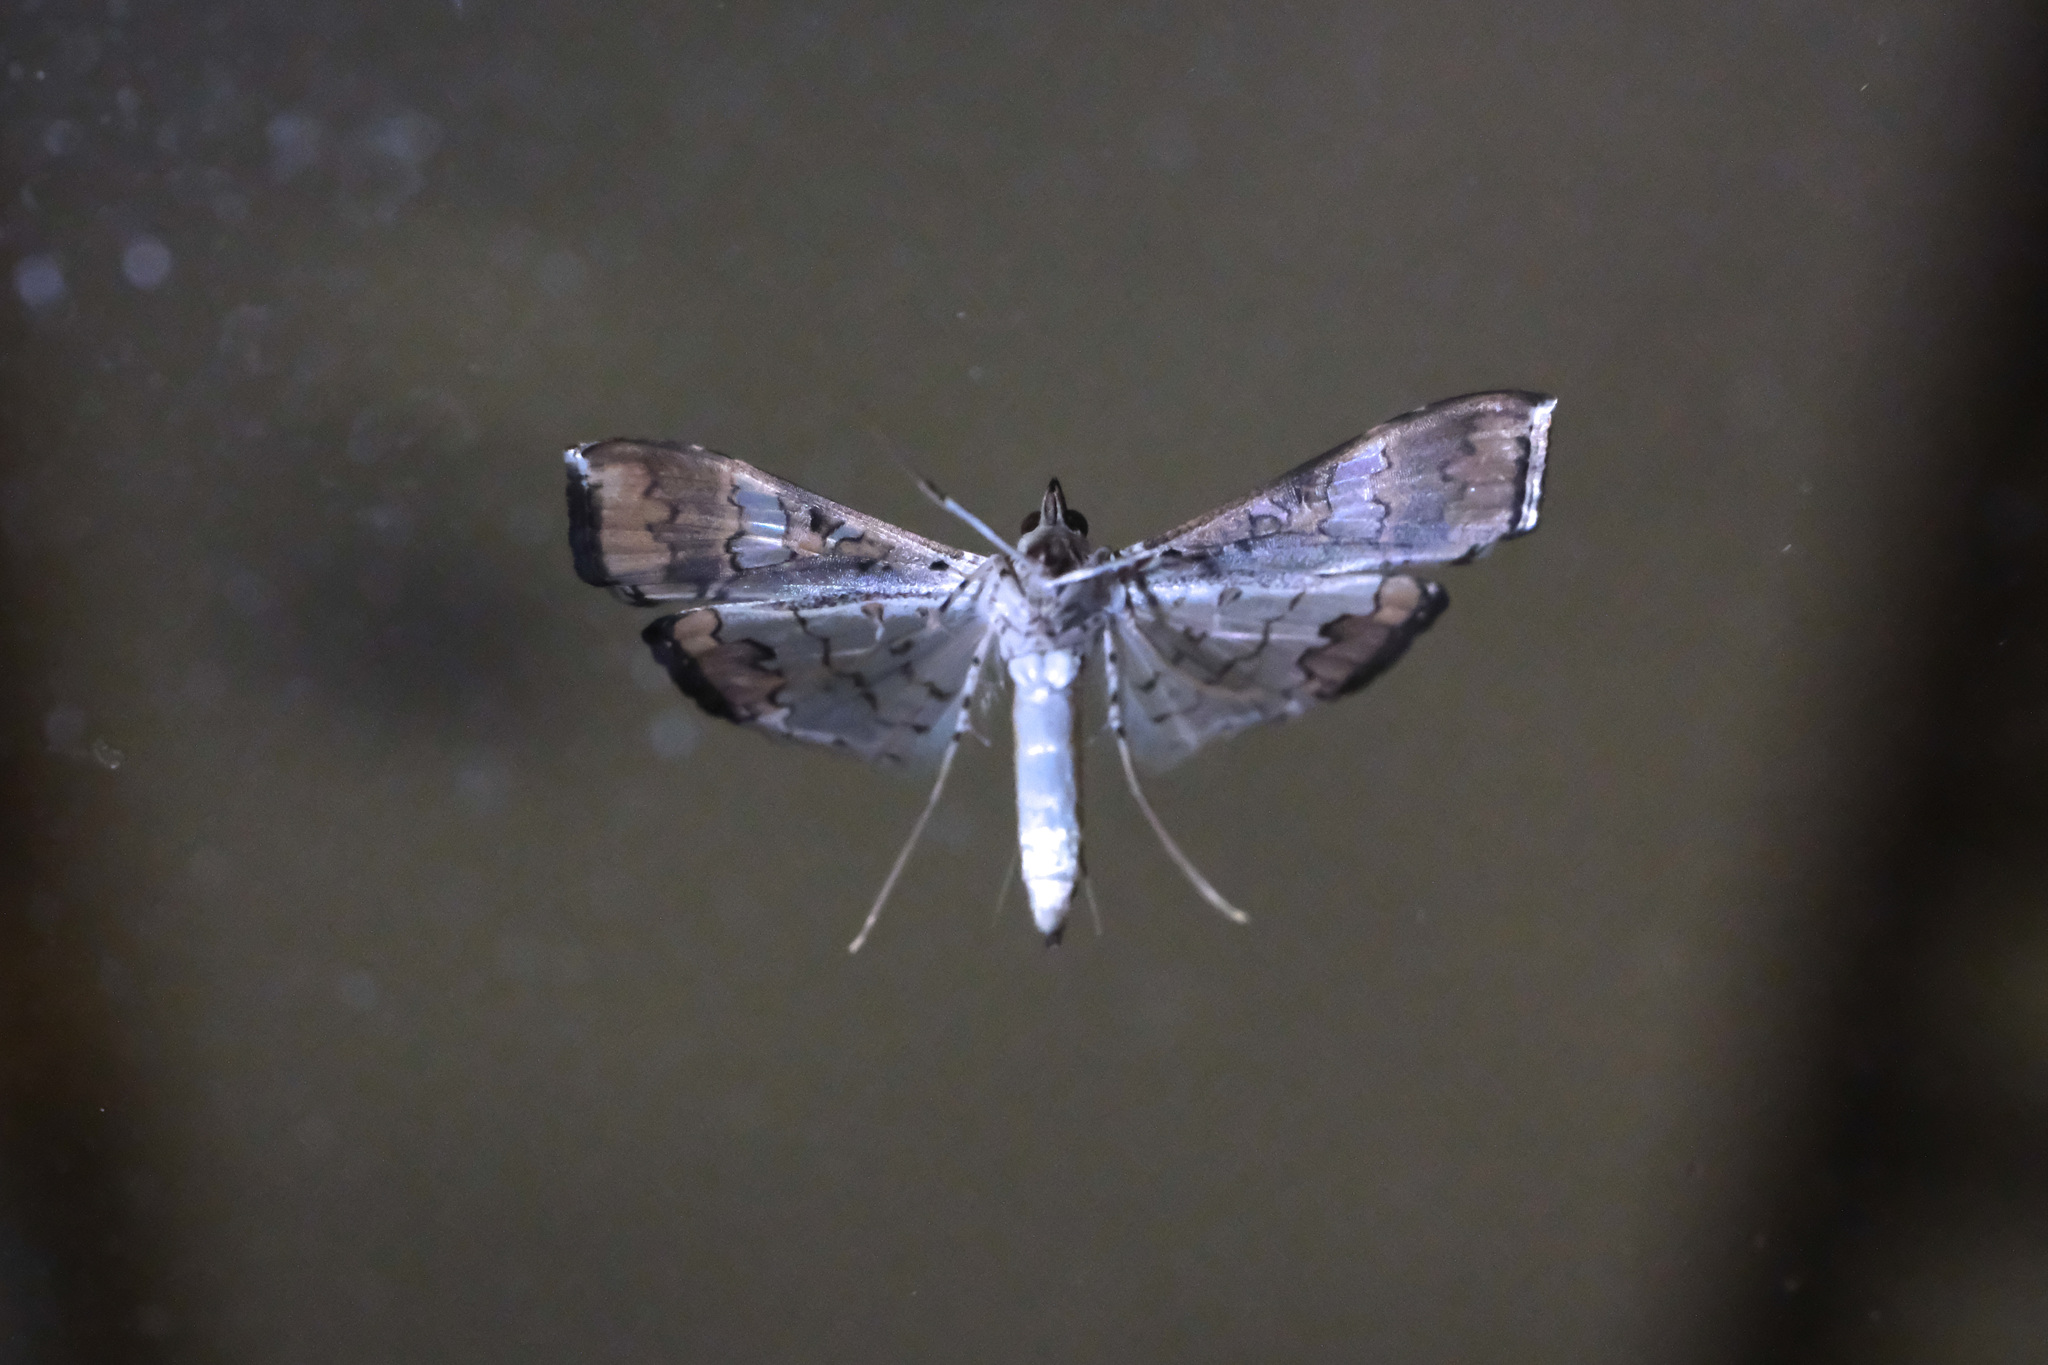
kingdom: Animalia
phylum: Arthropoda
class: Insecta
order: Lepidoptera
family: Crambidae
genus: Maruca
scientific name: Maruca vitrata
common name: Maruca pod borer
